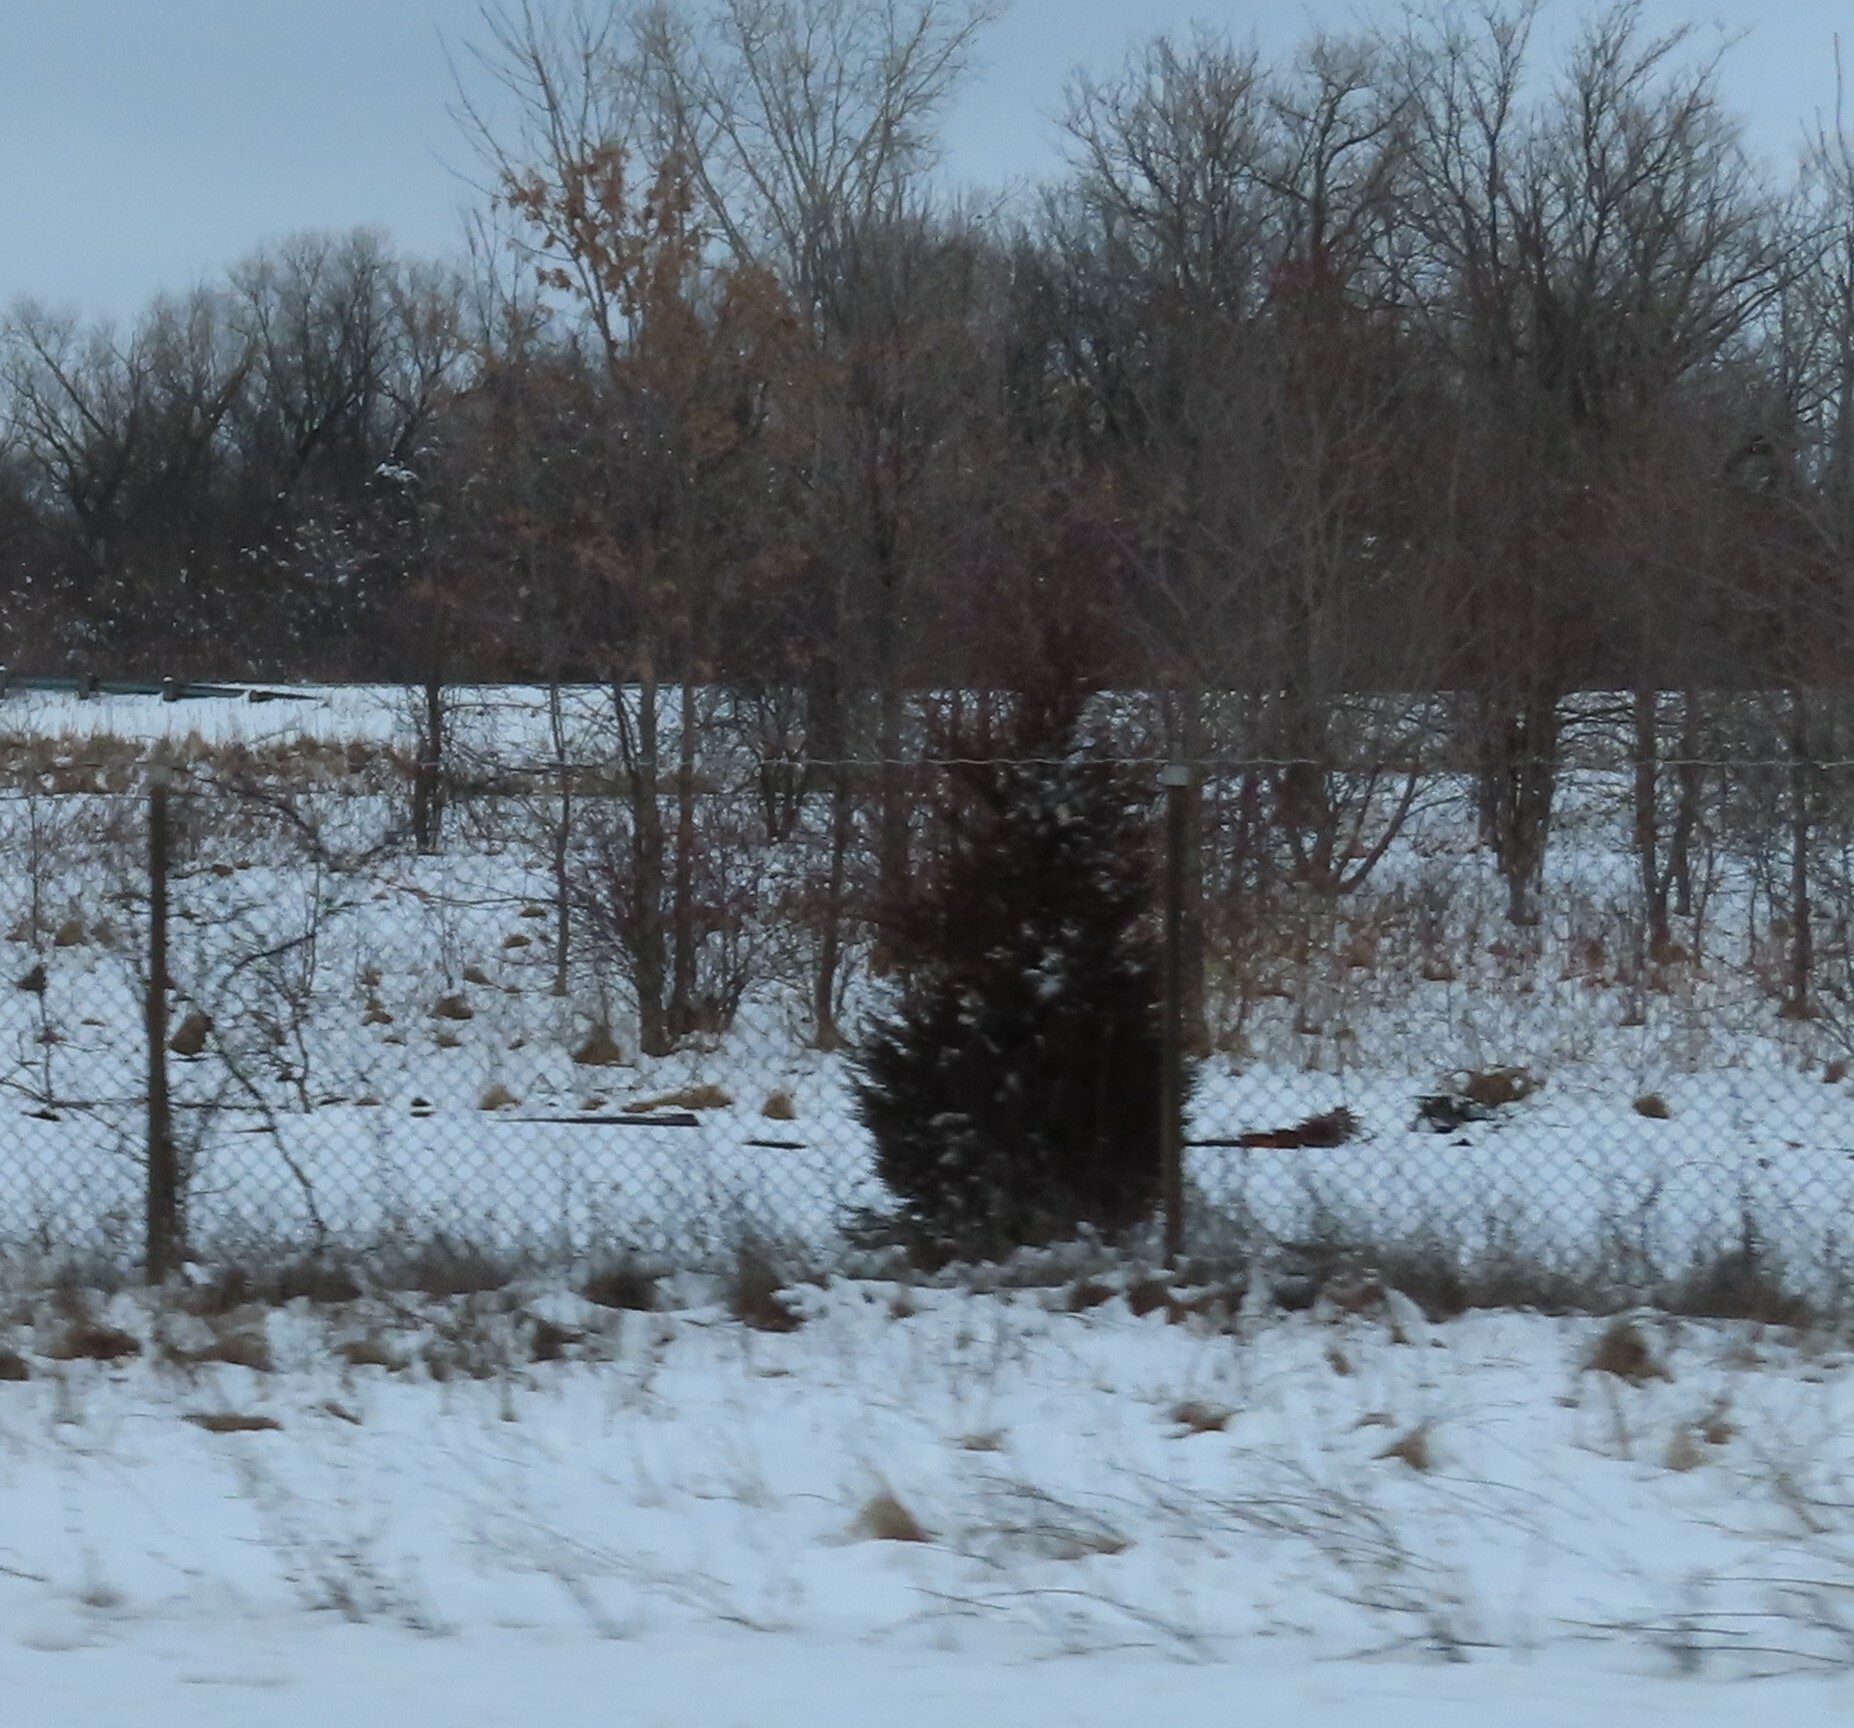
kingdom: Plantae
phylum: Tracheophyta
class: Pinopsida
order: Pinales
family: Cupressaceae
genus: Juniperus
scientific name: Juniperus virginiana
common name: Red juniper
